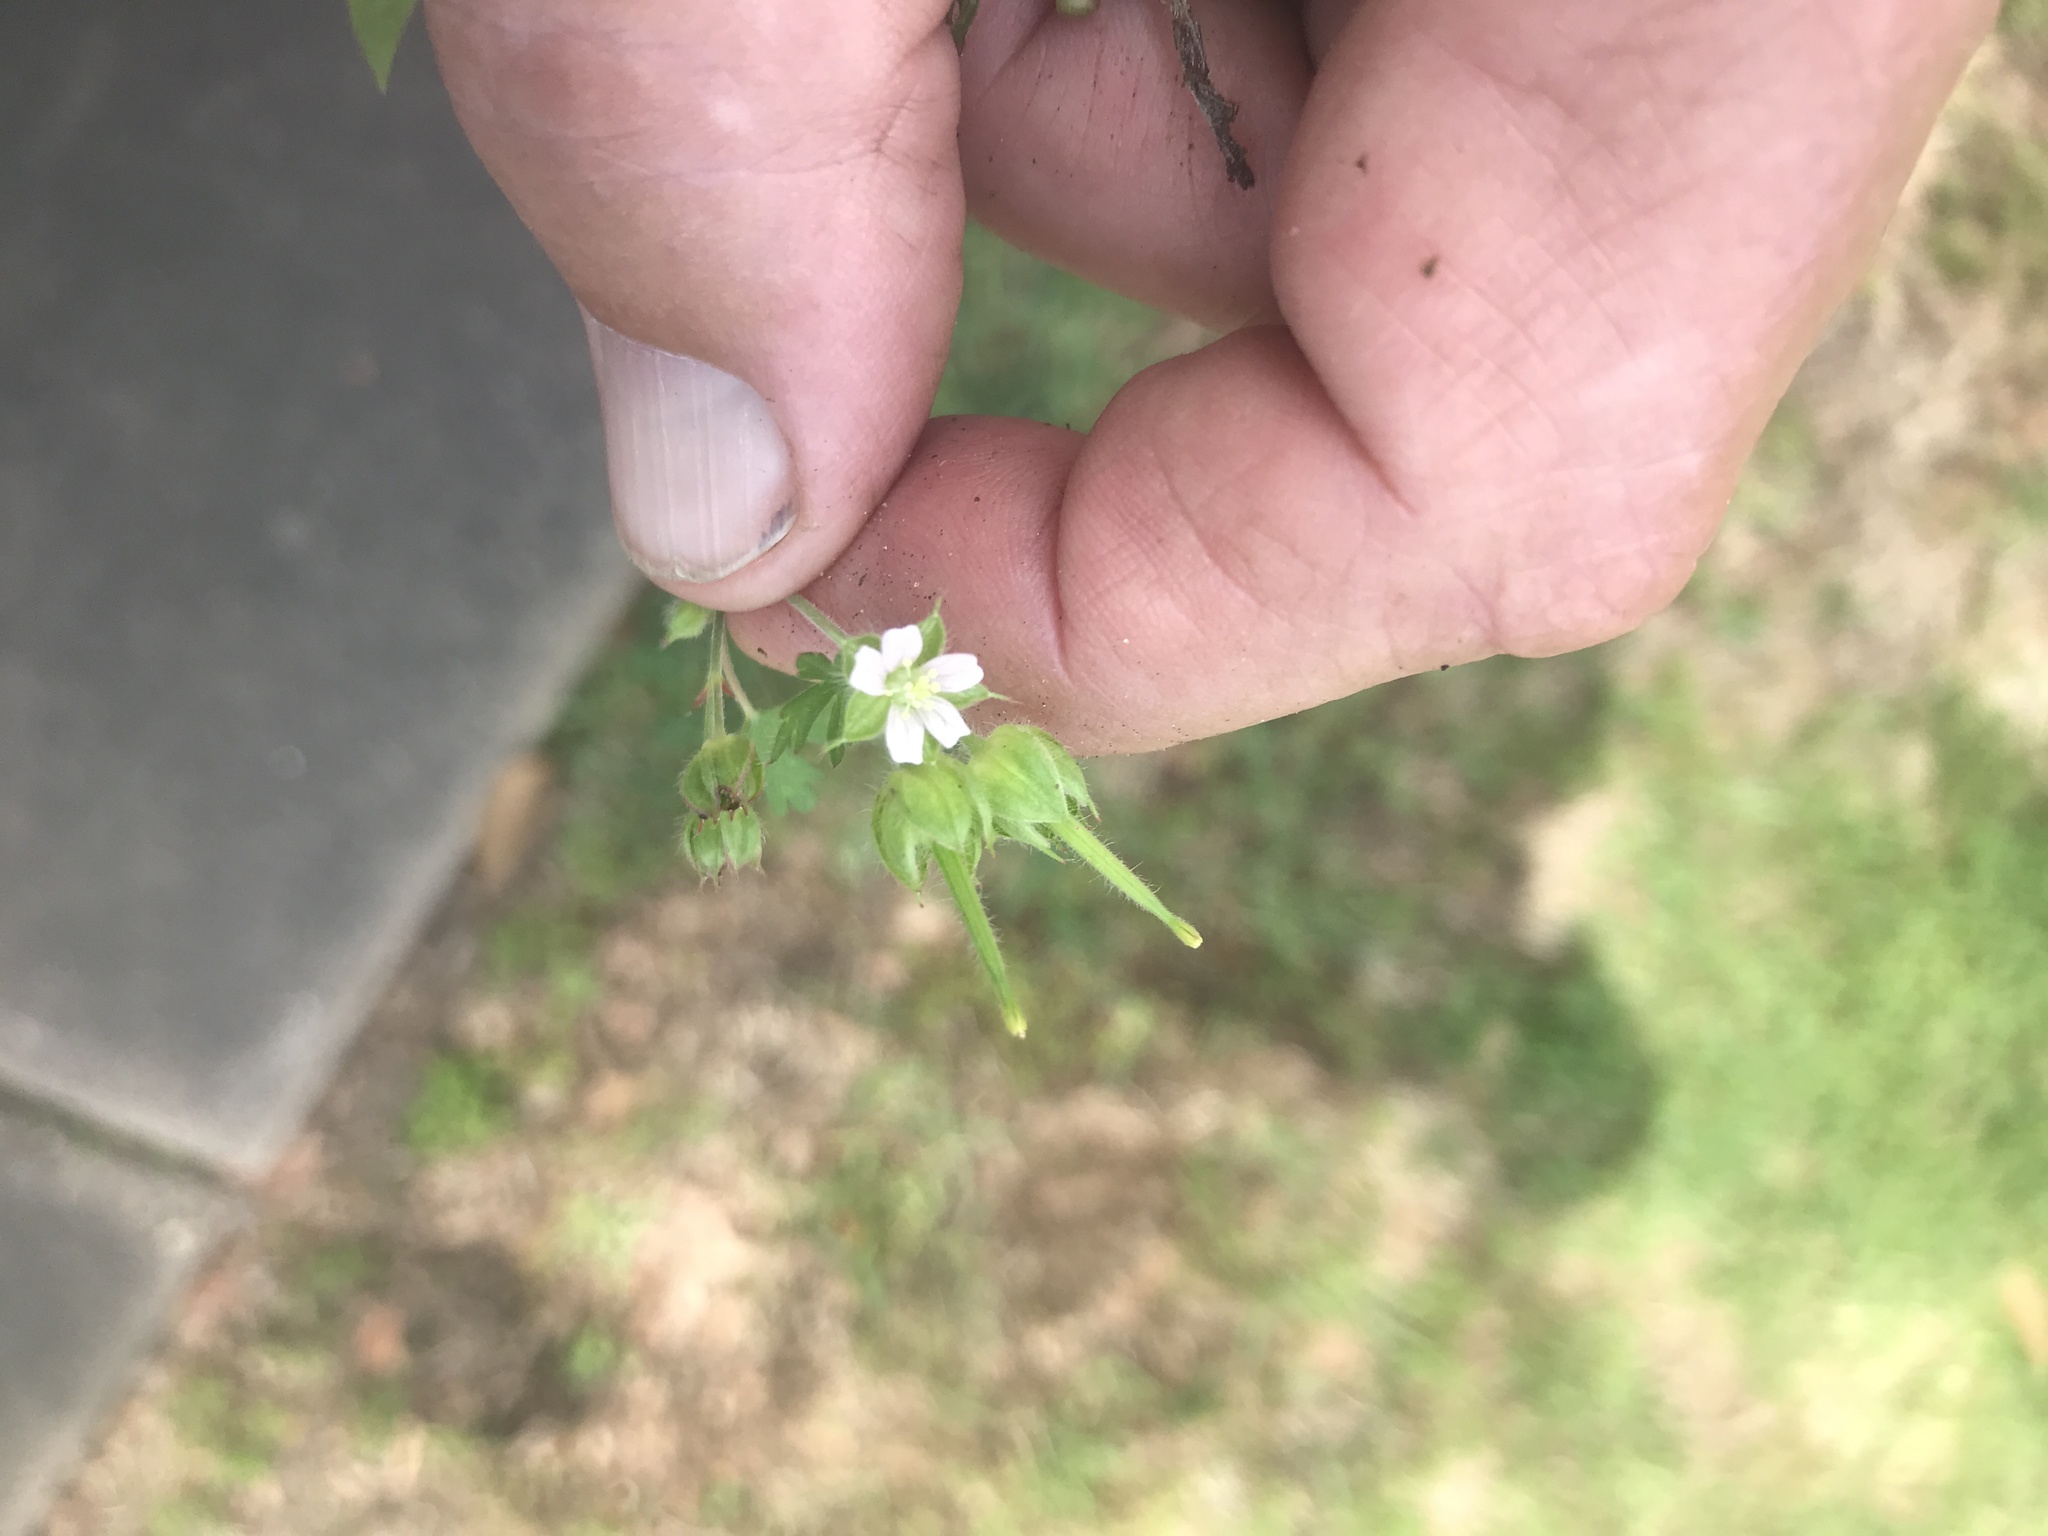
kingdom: Plantae
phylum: Tracheophyta
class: Magnoliopsida
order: Geraniales
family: Geraniaceae
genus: Geranium
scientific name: Geranium carolinianum
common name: Carolina crane's-bill
